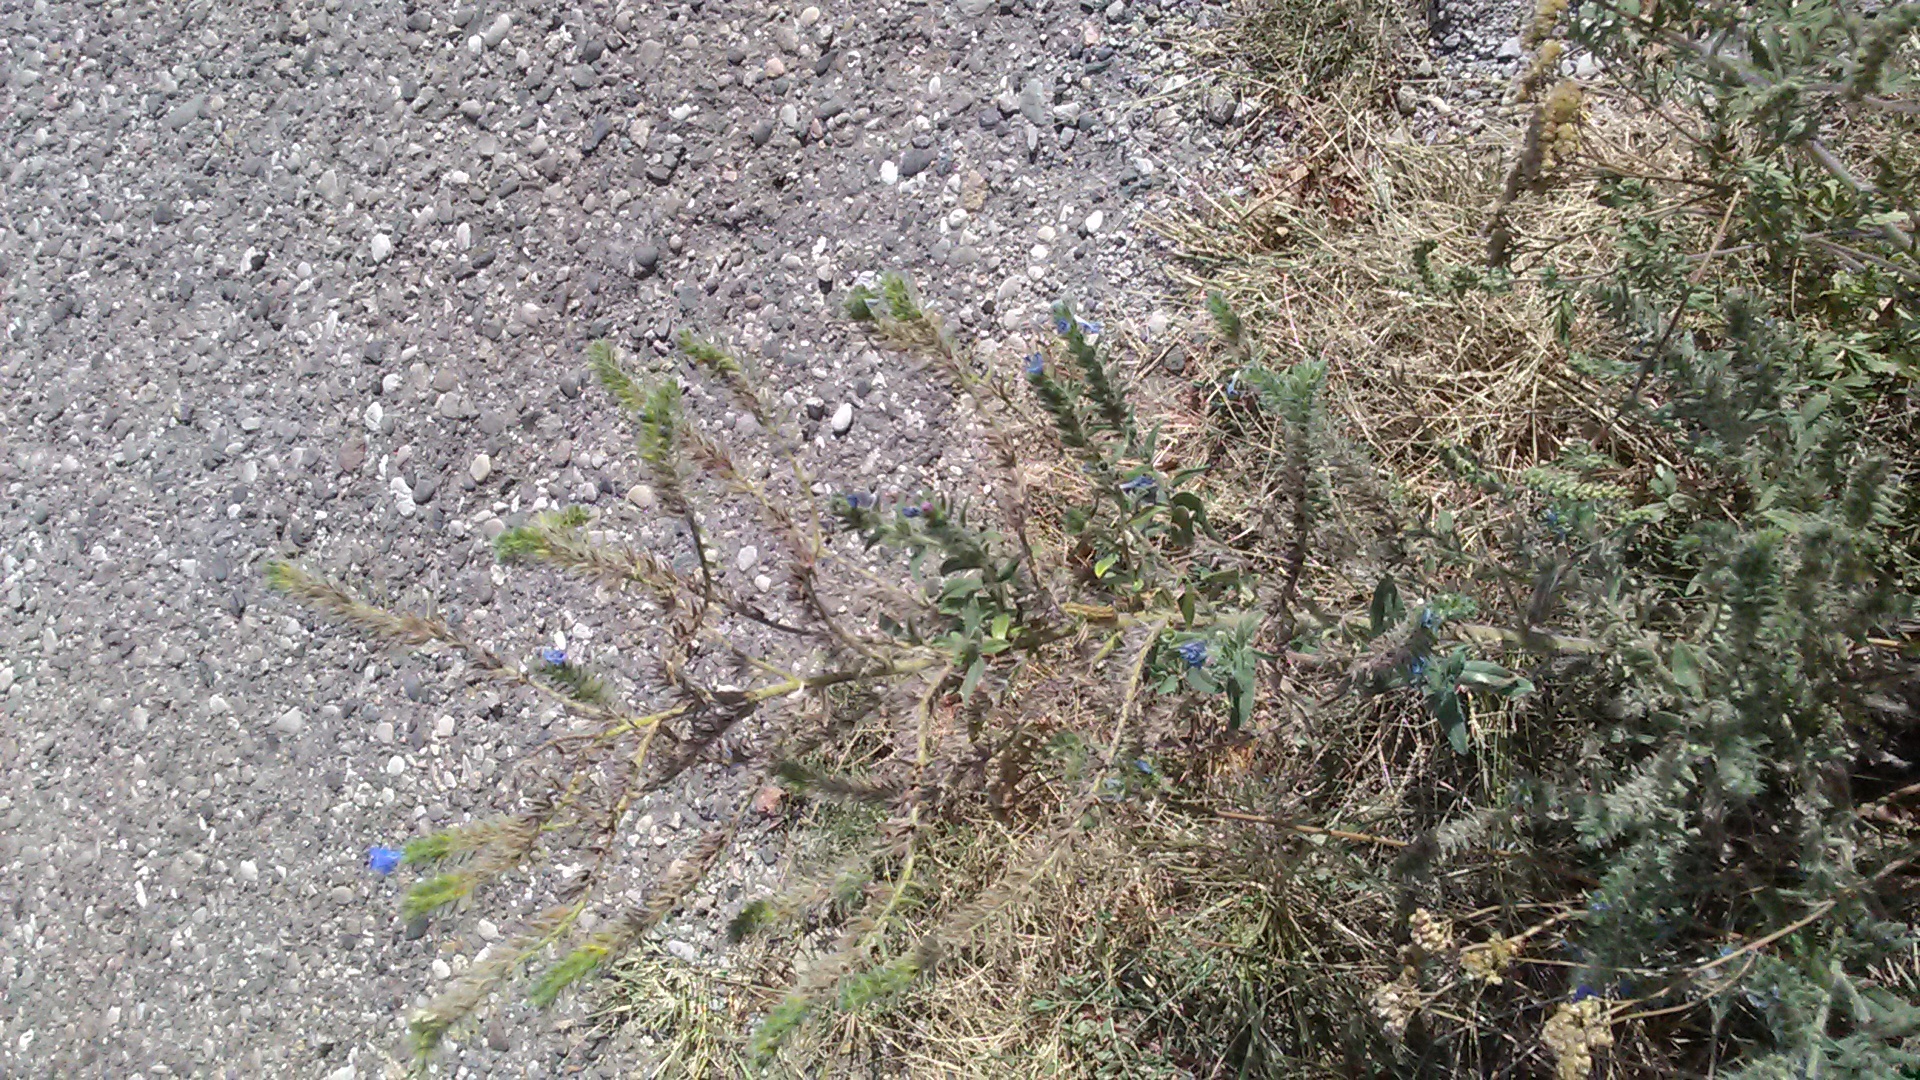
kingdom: Plantae
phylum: Tracheophyta
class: Magnoliopsida
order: Boraginales
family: Boraginaceae
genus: Echium
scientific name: Echium vulgare
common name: Common viper's bugloss
